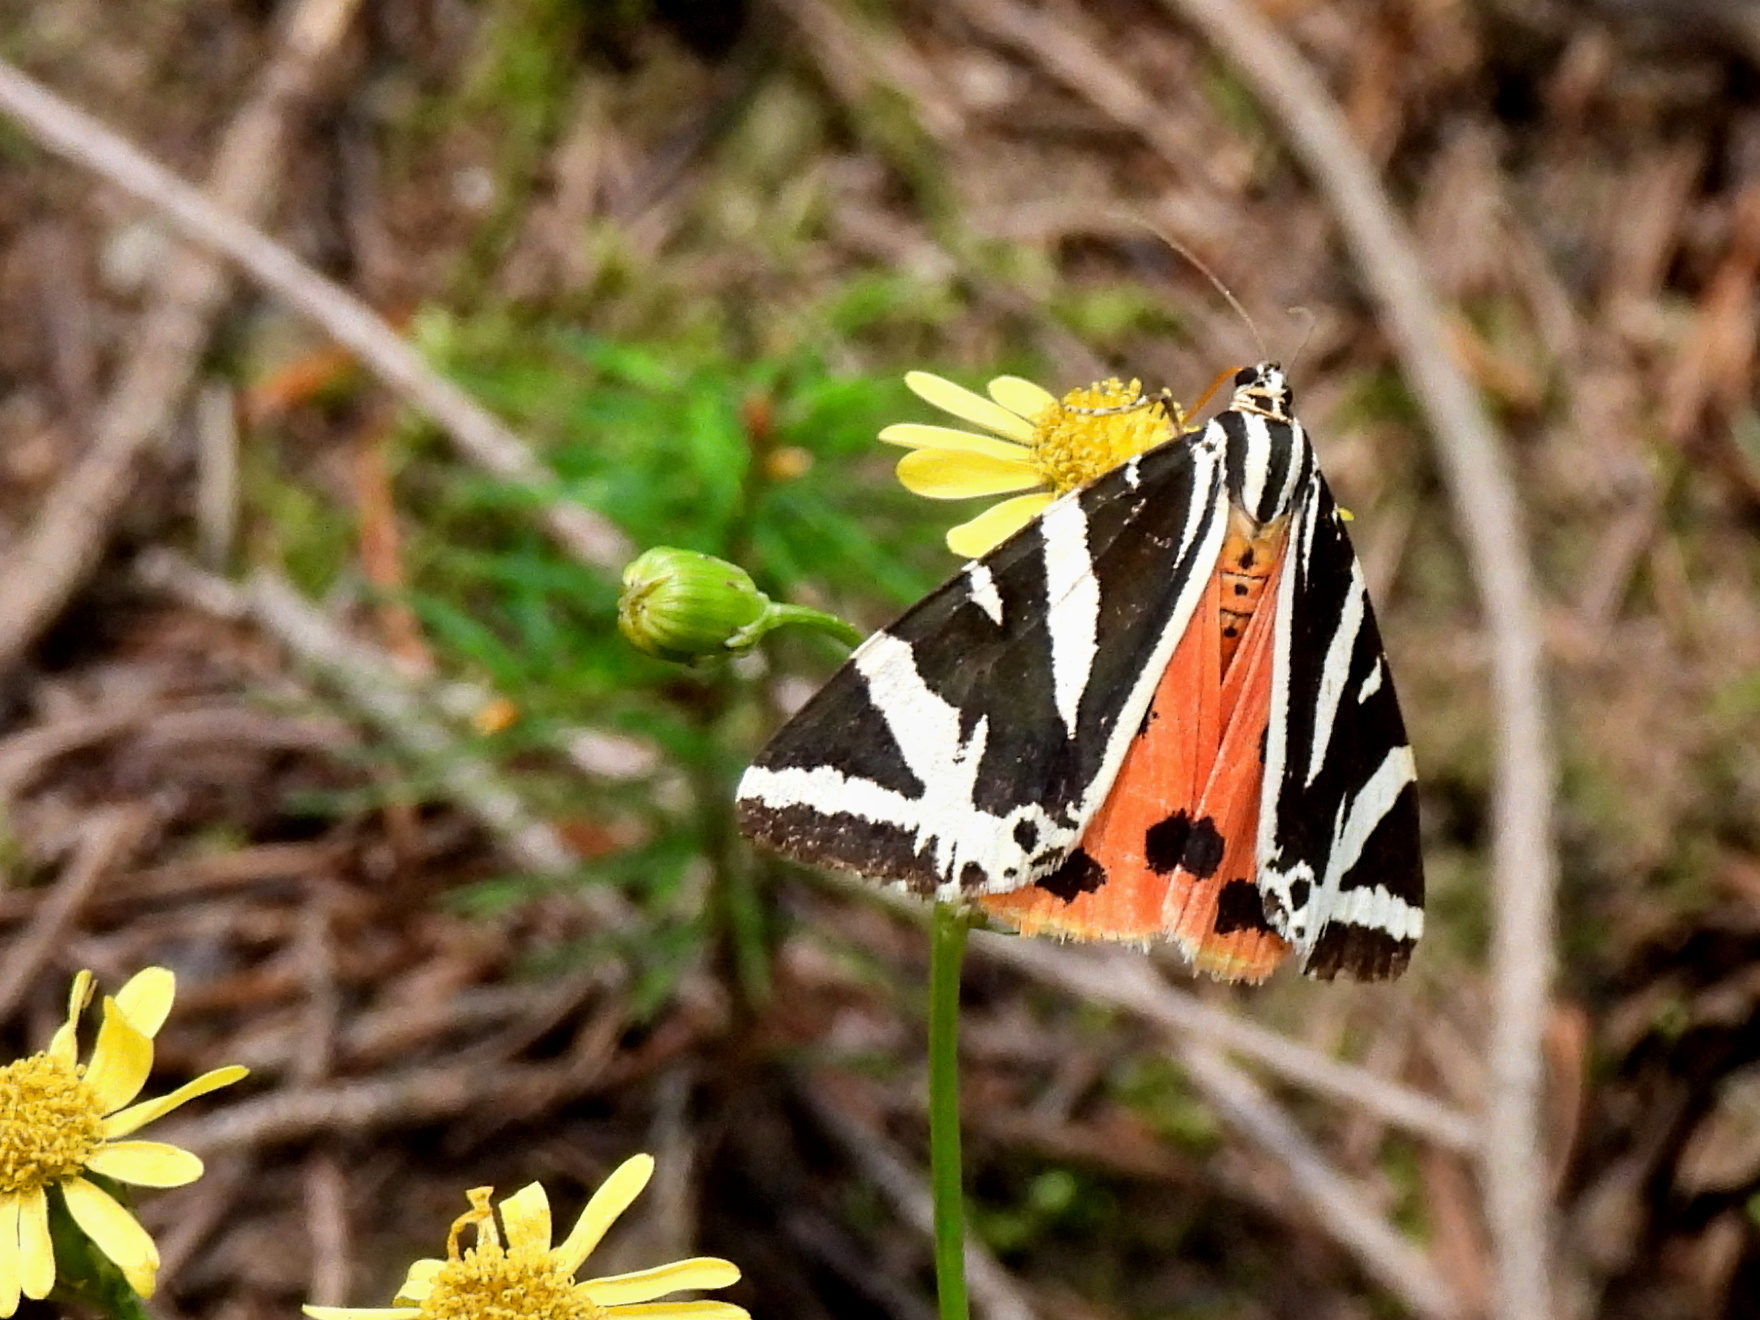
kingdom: Animalia
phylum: Arthropoda
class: Insecta
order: Lepidoptera
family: Erebidae
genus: Euplagia
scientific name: Euplagia quadripunctaria
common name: Jersey tiger
